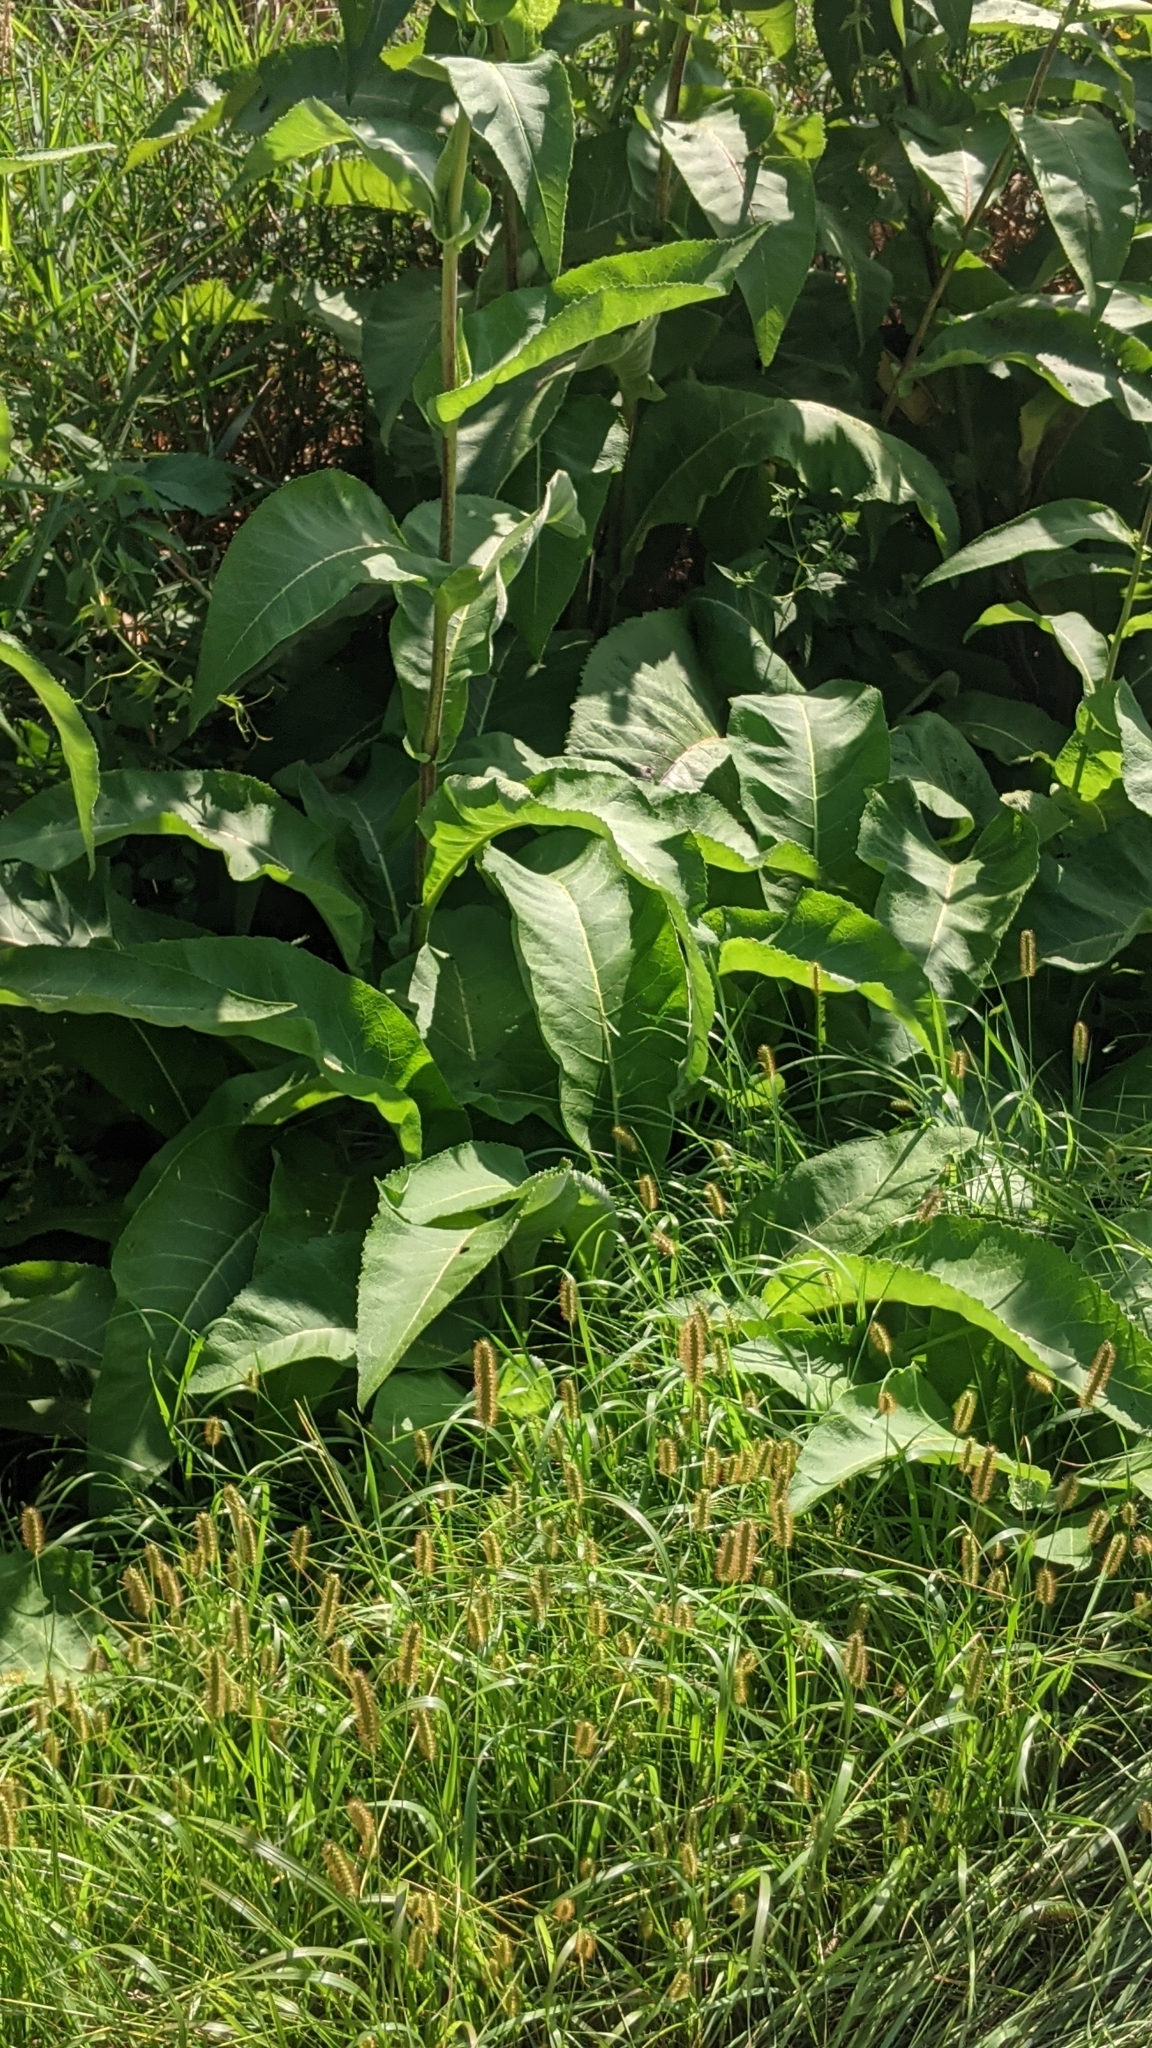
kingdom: Plantae
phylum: Tracheophyta
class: Magnoliopsida
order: Asterales
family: Asteraceae
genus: Silphium
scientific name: Silphium perfoliatum
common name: Cup-plant
